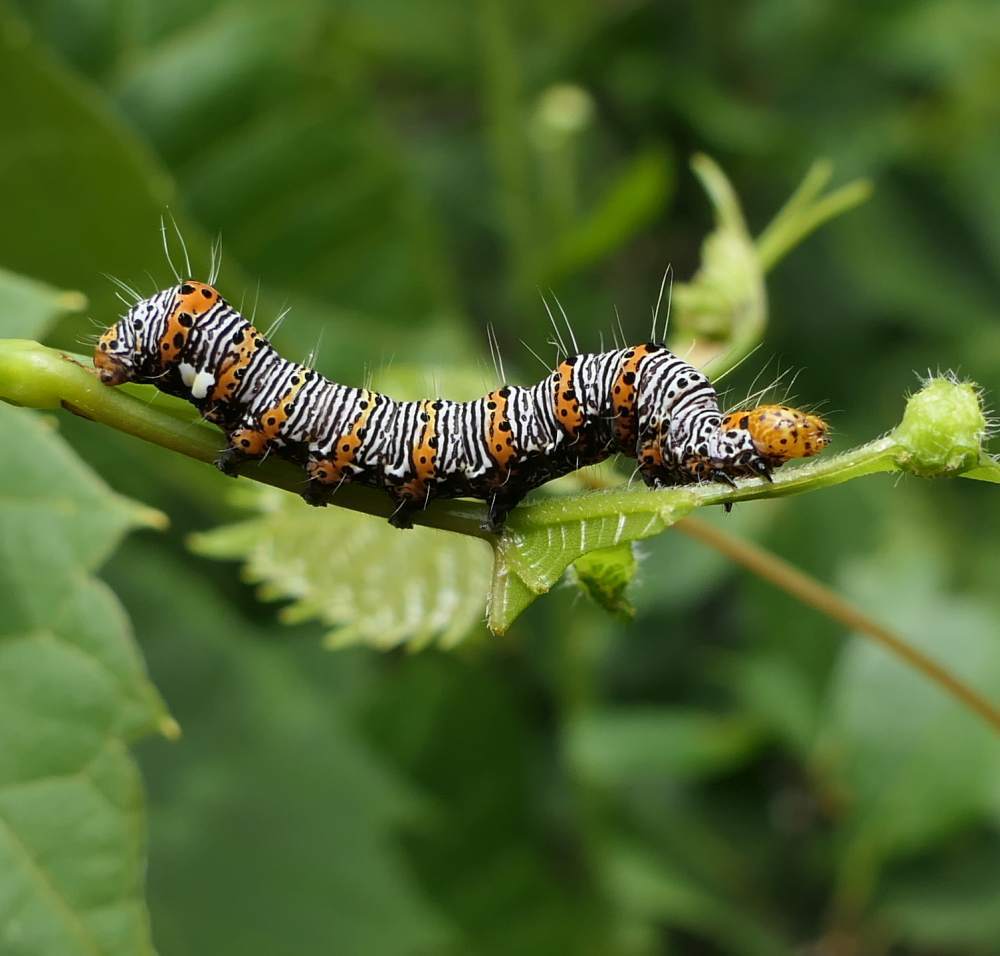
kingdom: Animalia
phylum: Arthropoda
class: Insecta
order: Lepidoptera
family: Noctuidae
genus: Alypia
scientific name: Alypia octomaculata
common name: Eight-spotted forester
